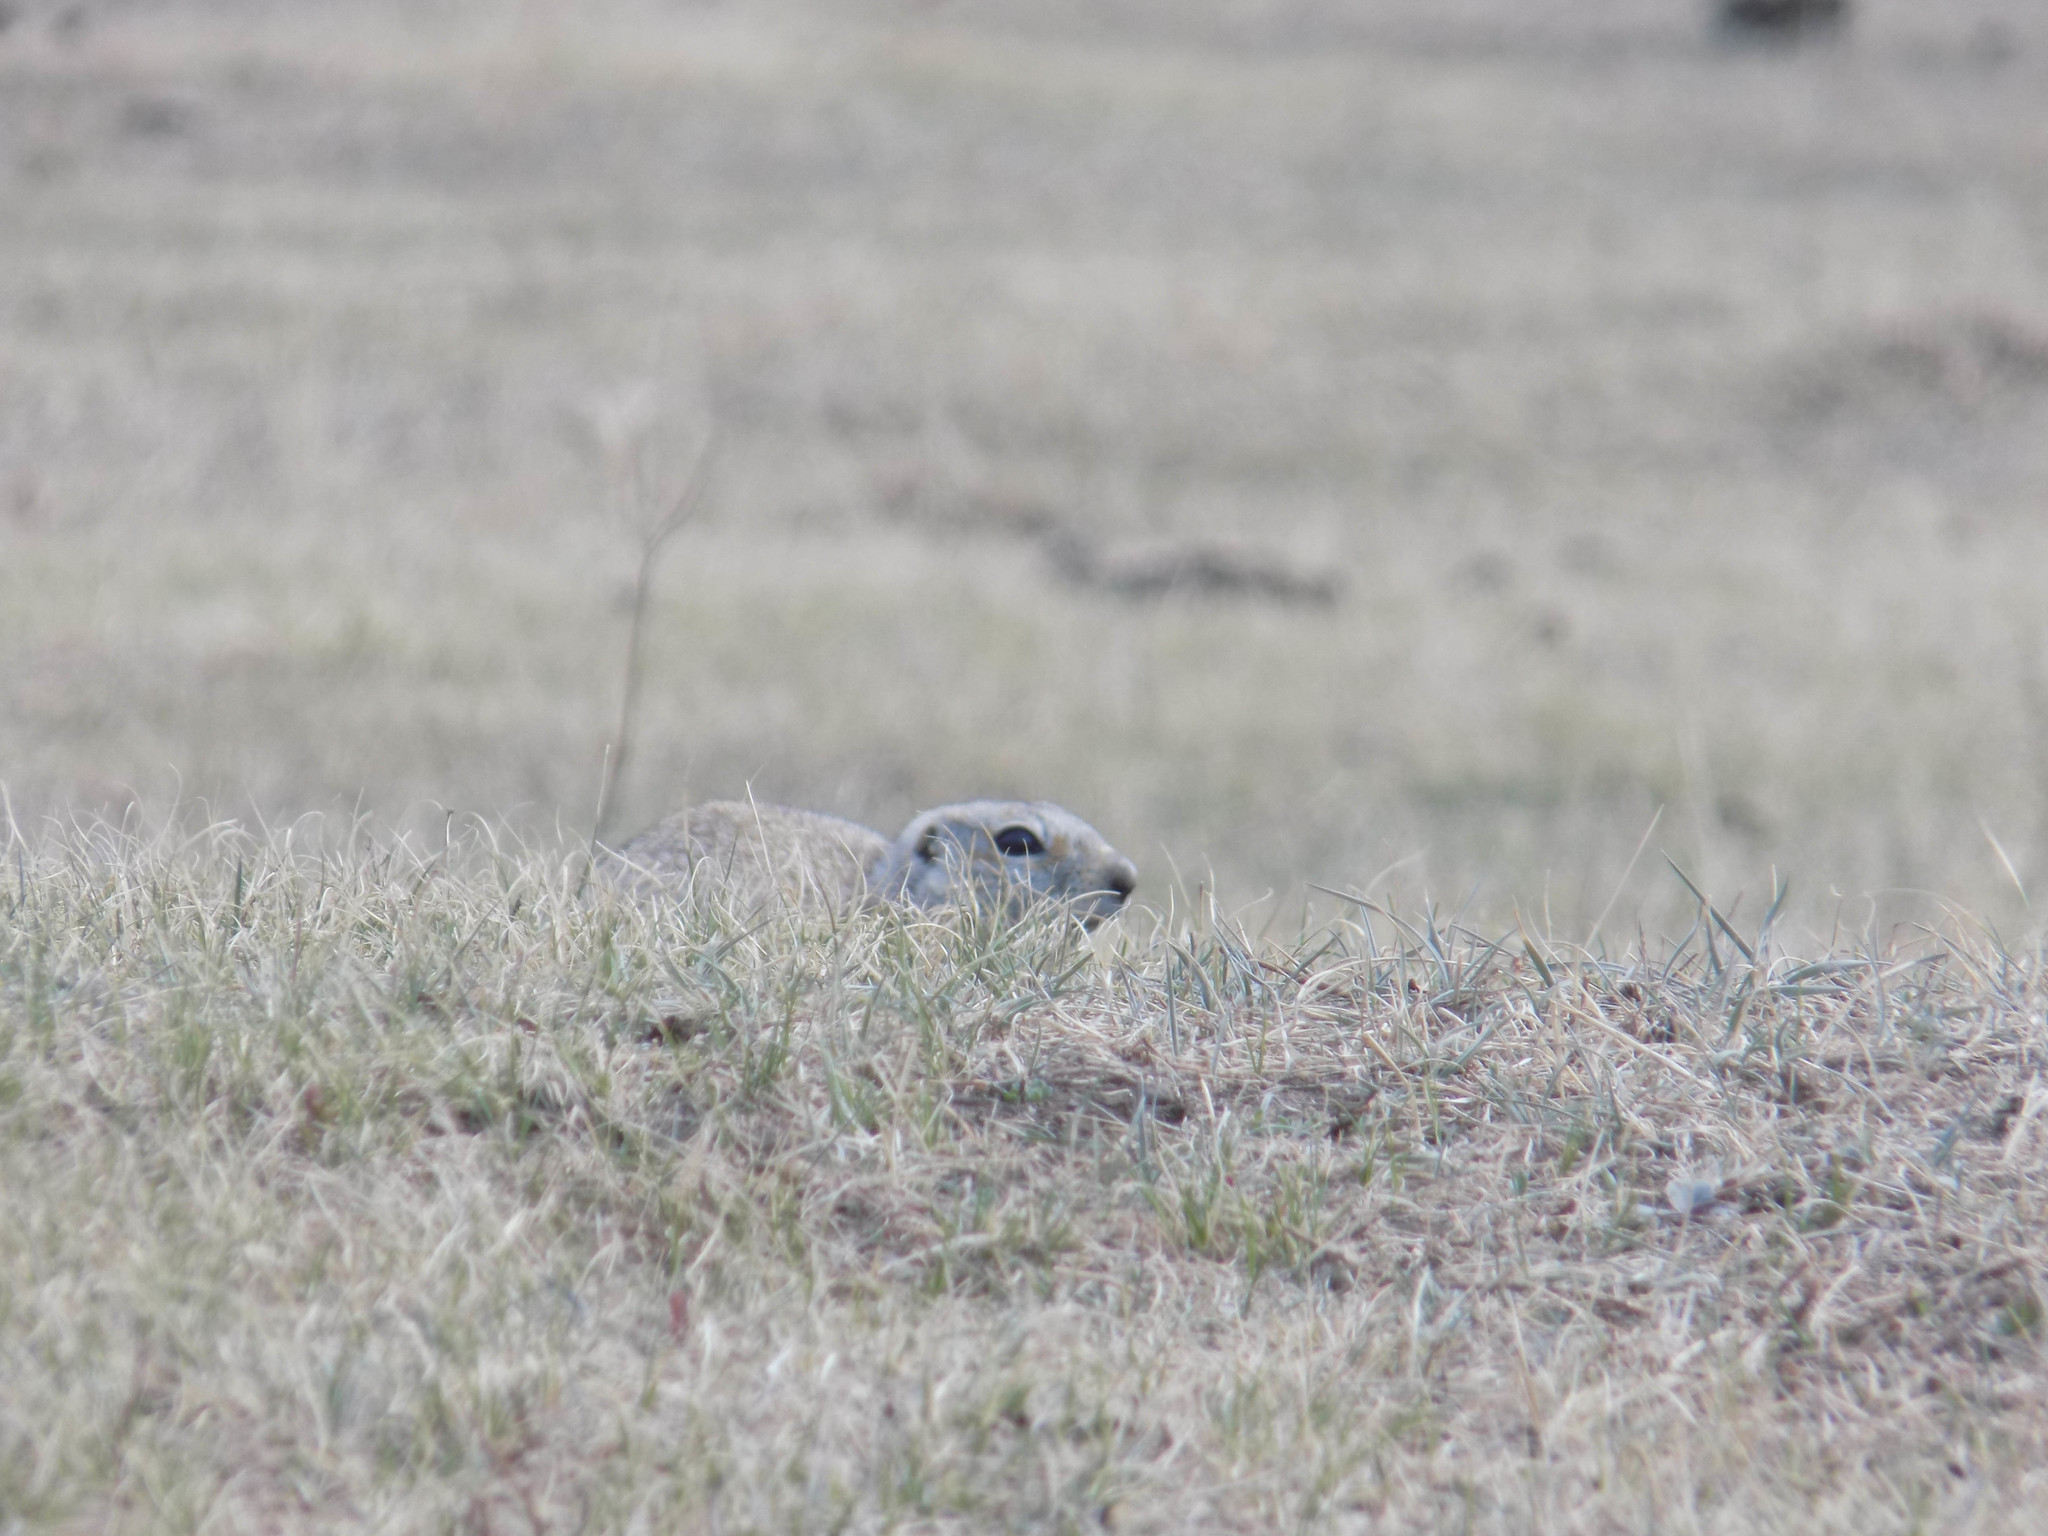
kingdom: Animalia
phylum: Chordata
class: Mammalia
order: Rodentia
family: Sciuridae
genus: Urocitellus
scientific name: Urocitellus undulatus
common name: Long-tailed ground squirrel
